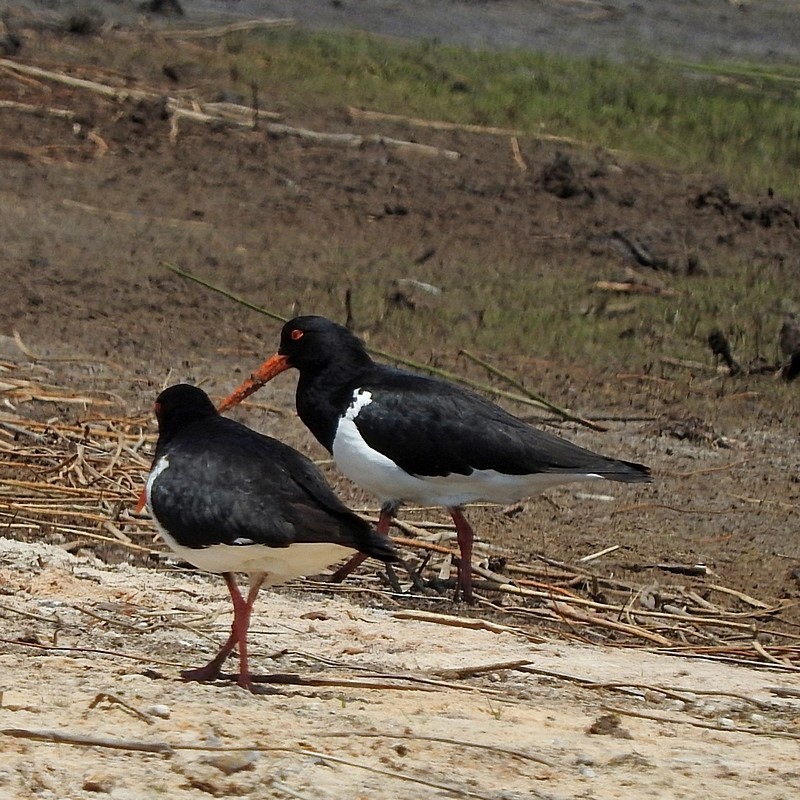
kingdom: Animalia
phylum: Chordata
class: Aves
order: Charadriiformes
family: Haematopodidae
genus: Haematopus
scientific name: Haematopus longirostris
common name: Pied oystercatcher
